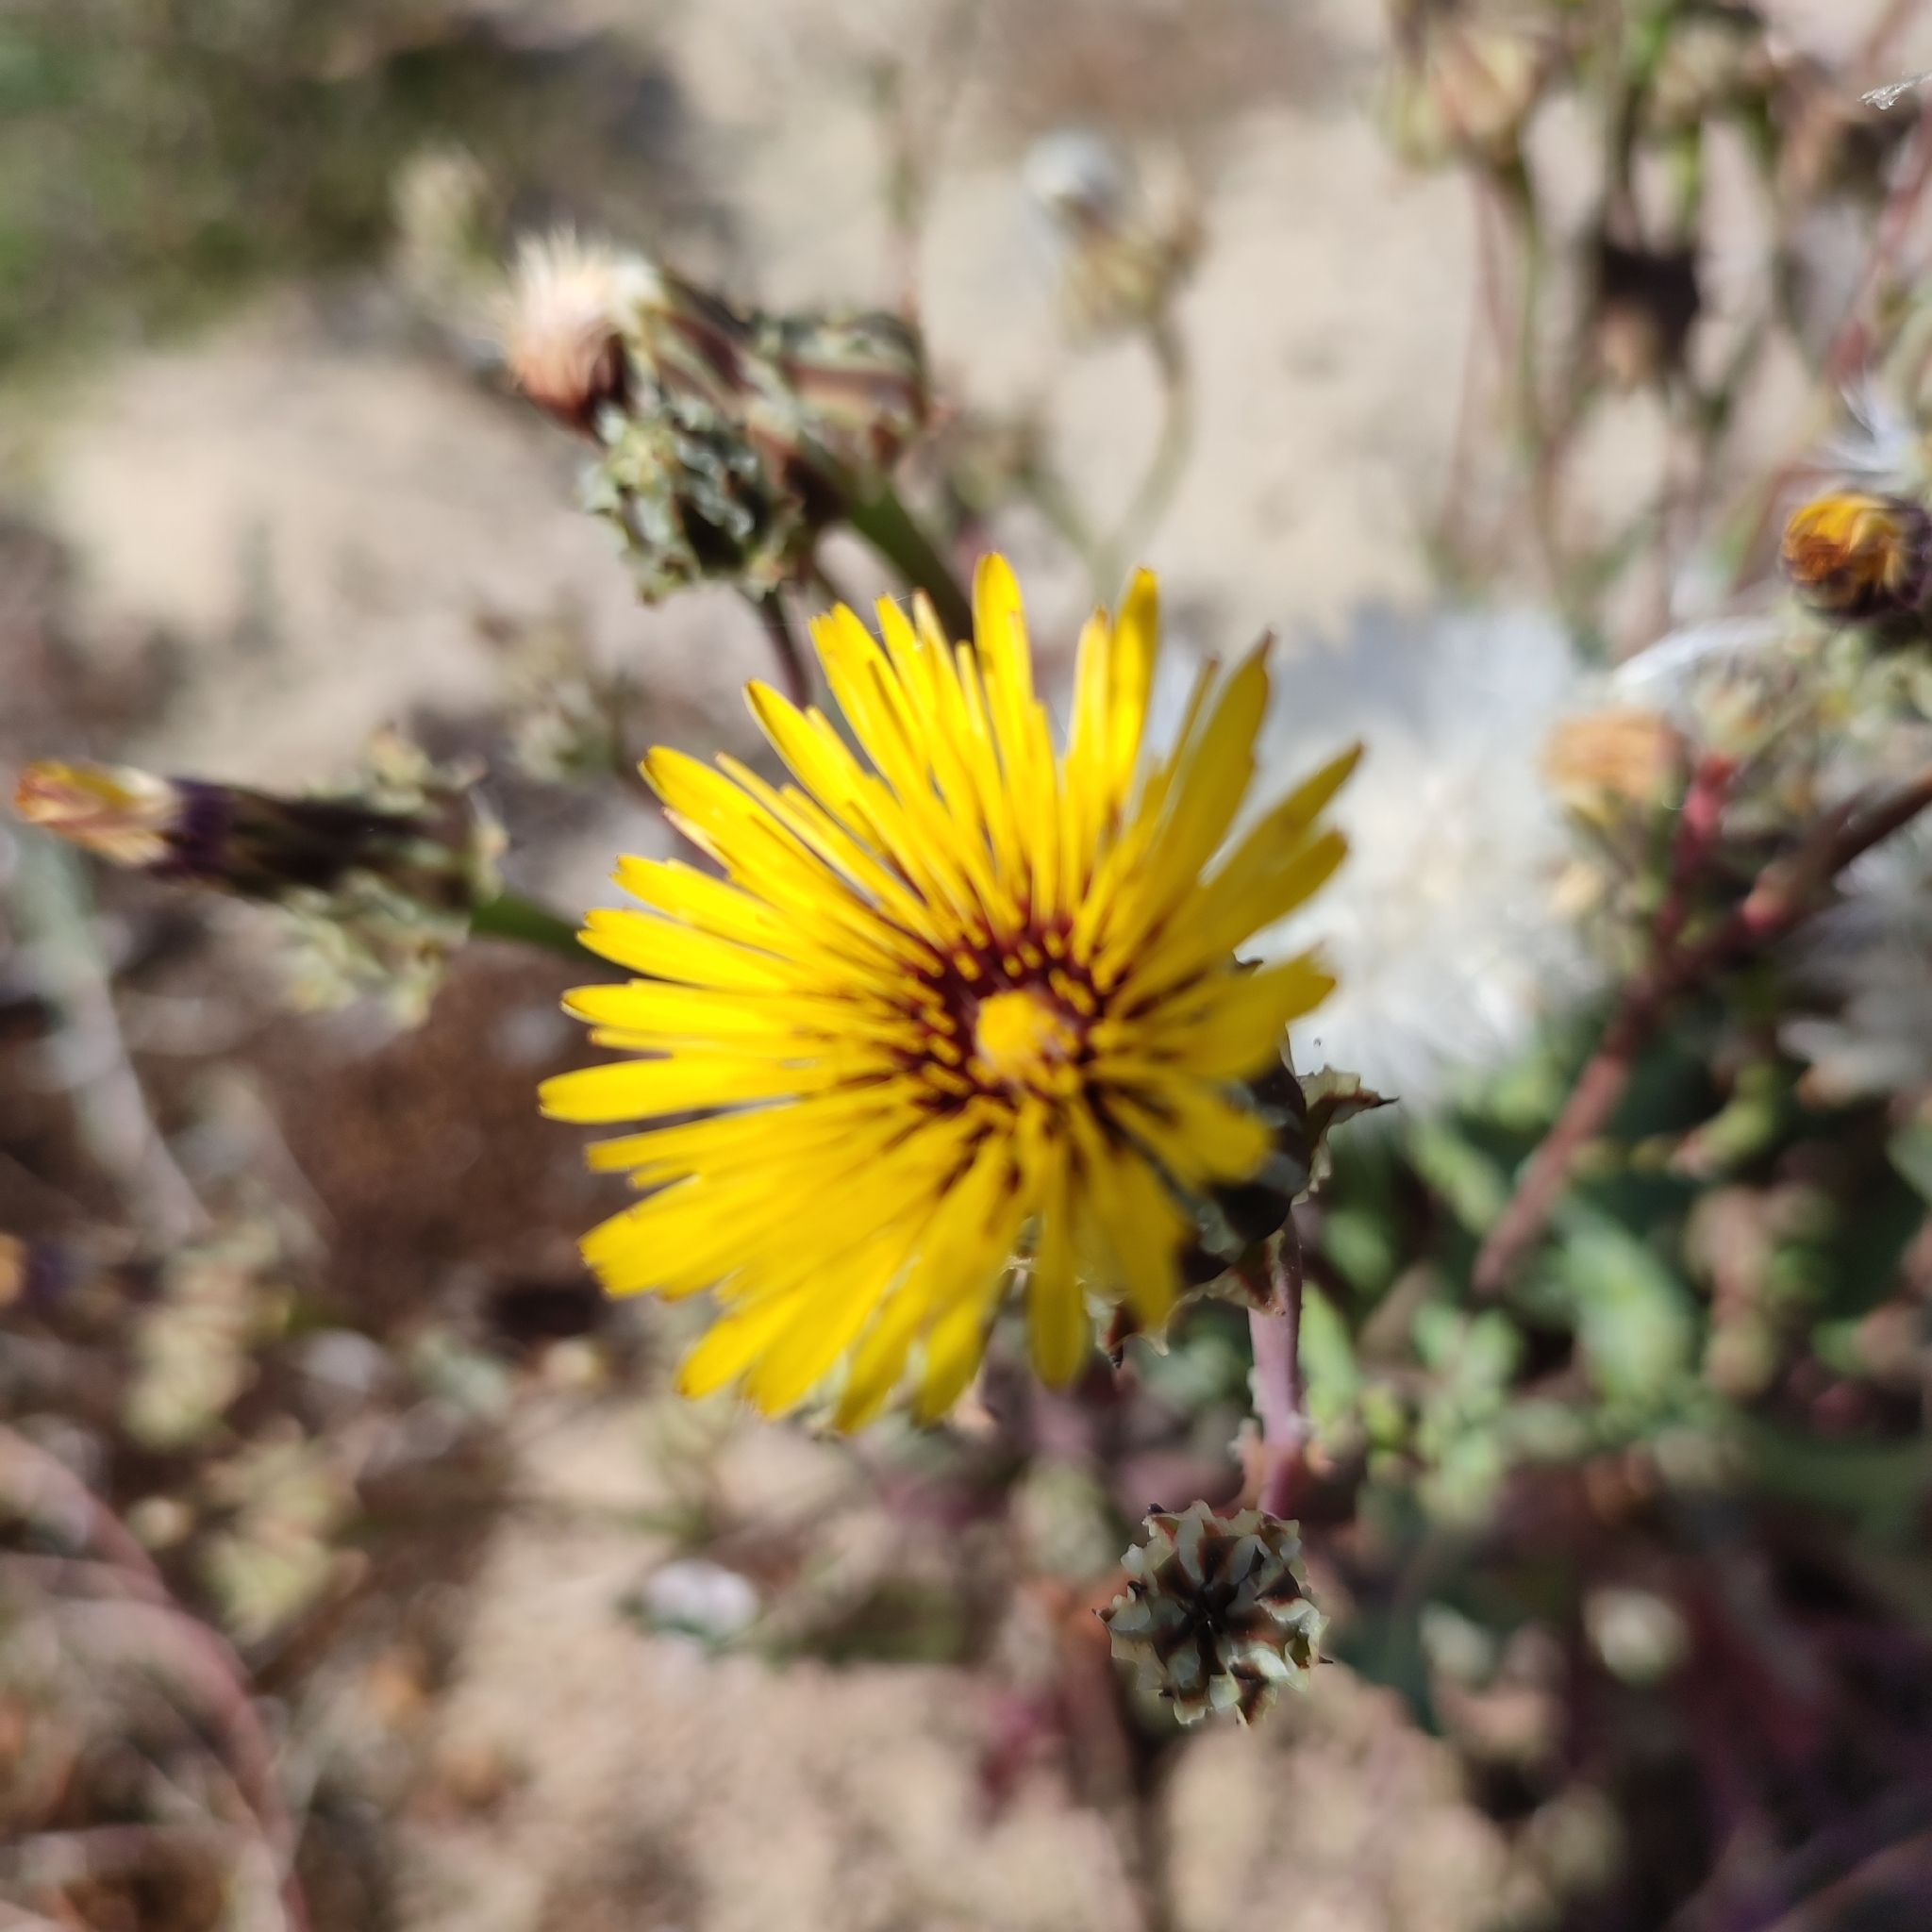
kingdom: Plantae
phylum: Tracheophyta
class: Magnoliopsida
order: Asterales
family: Asteraceae
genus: Reichardia
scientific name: Reichardia gaditana
